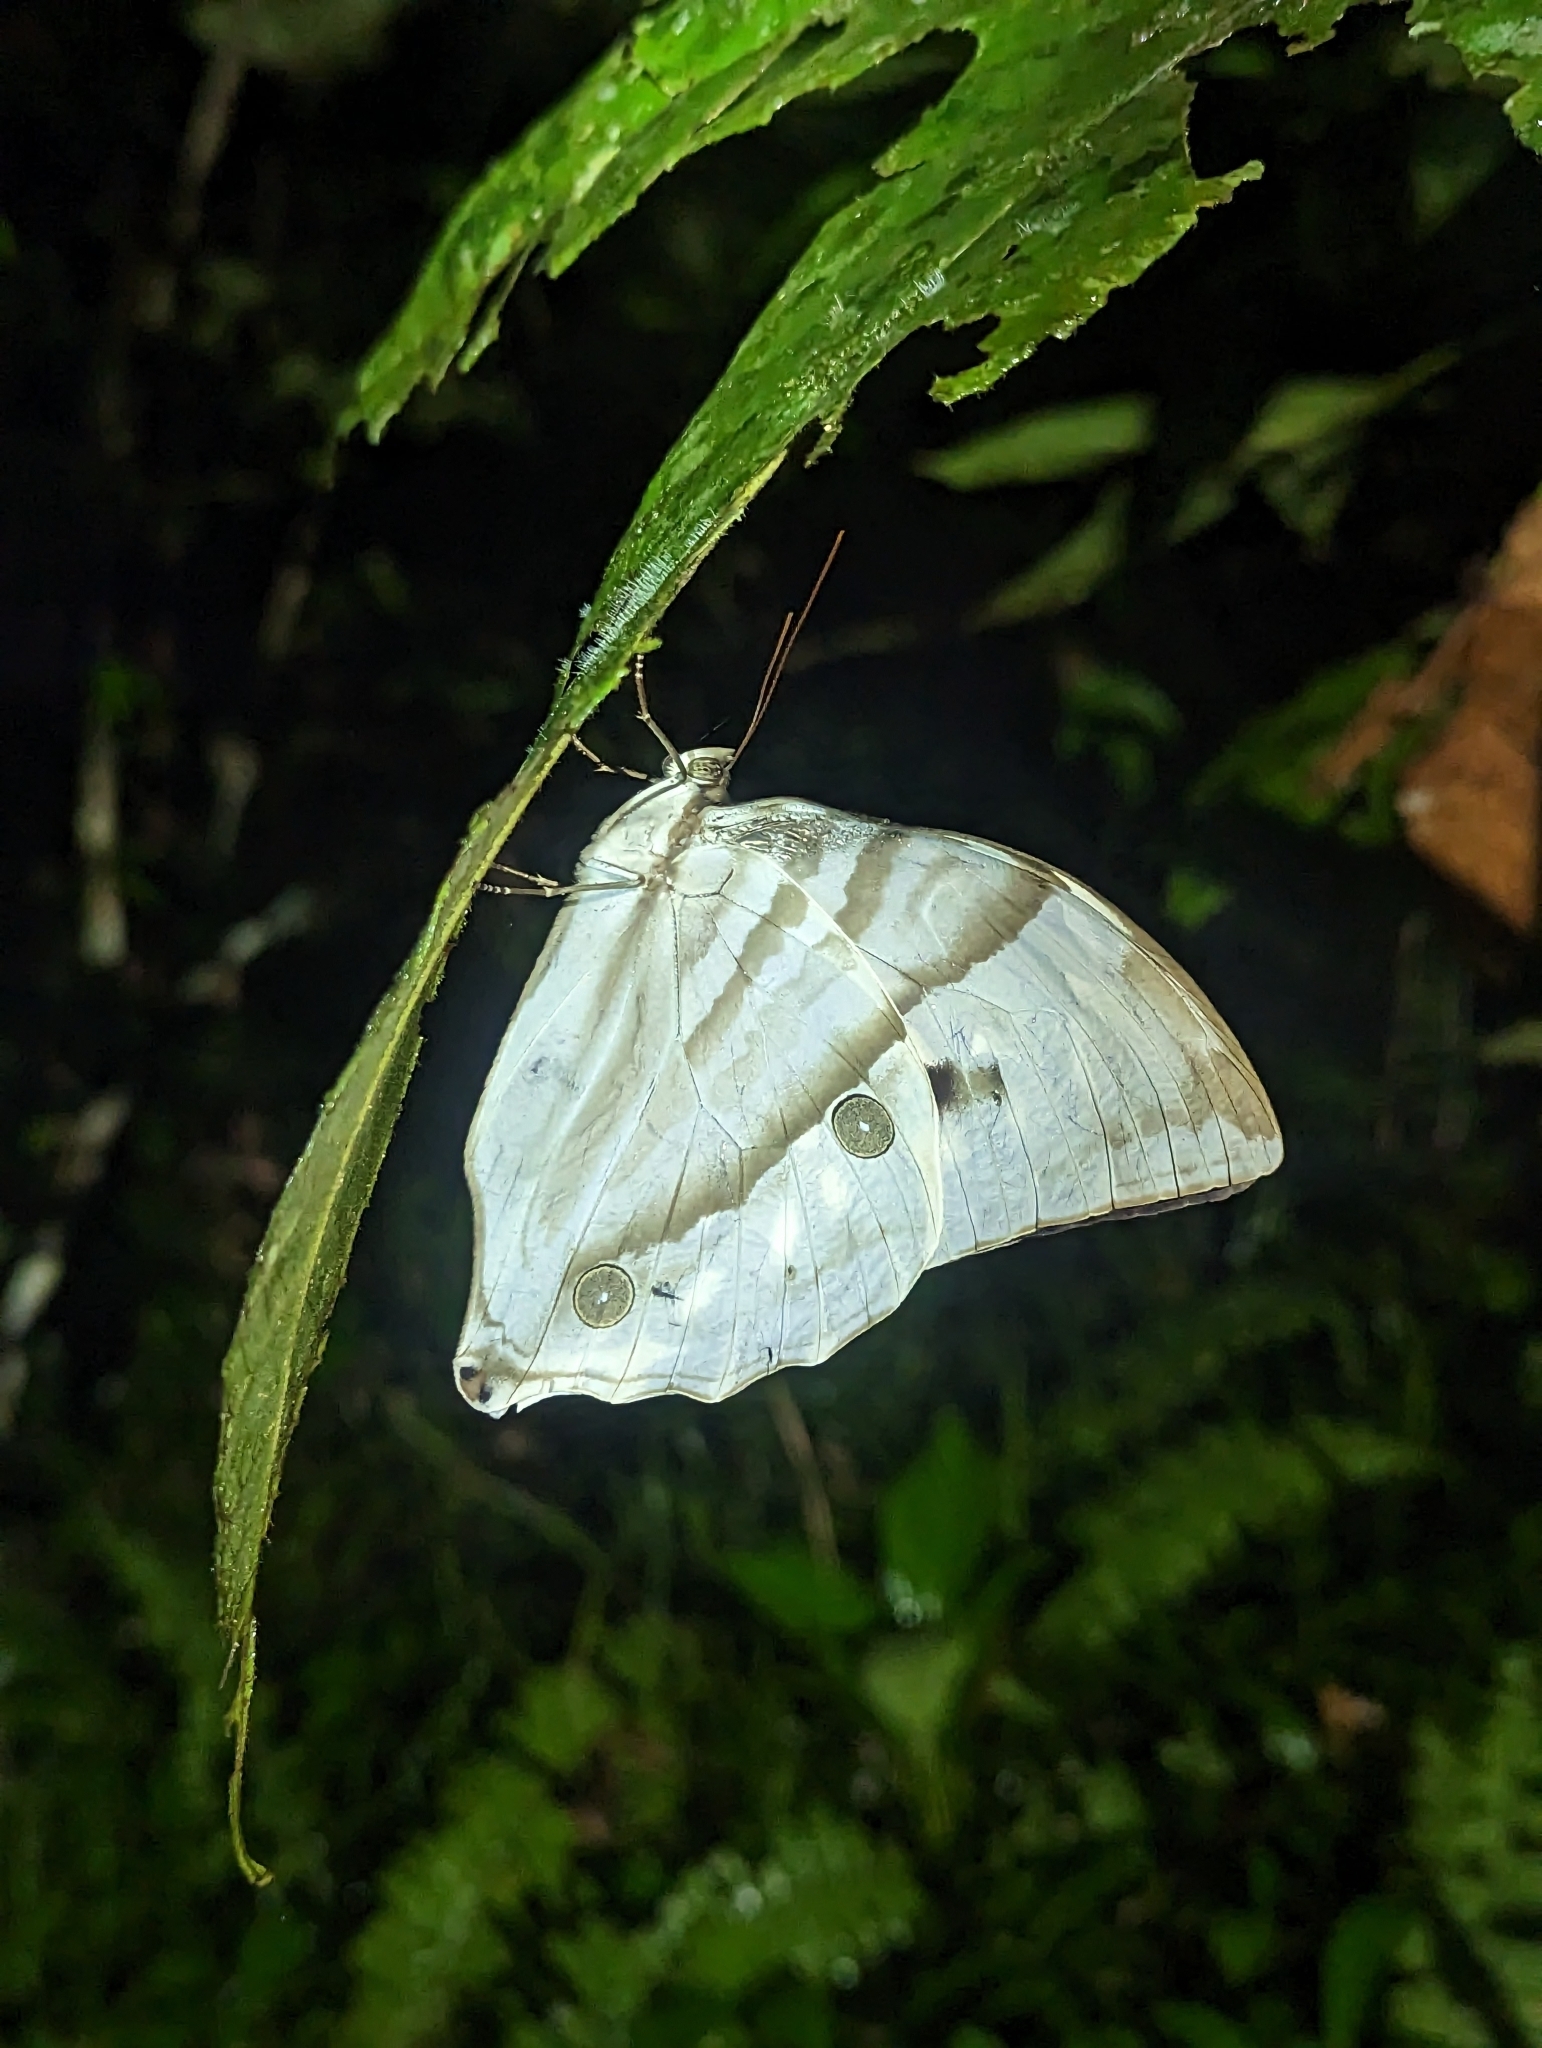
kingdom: Animalia
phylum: Arthropoda
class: Insecta
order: Lepidoptera
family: Nymphalidae
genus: Zeuxidia
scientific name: Zeuxidia aurelia
